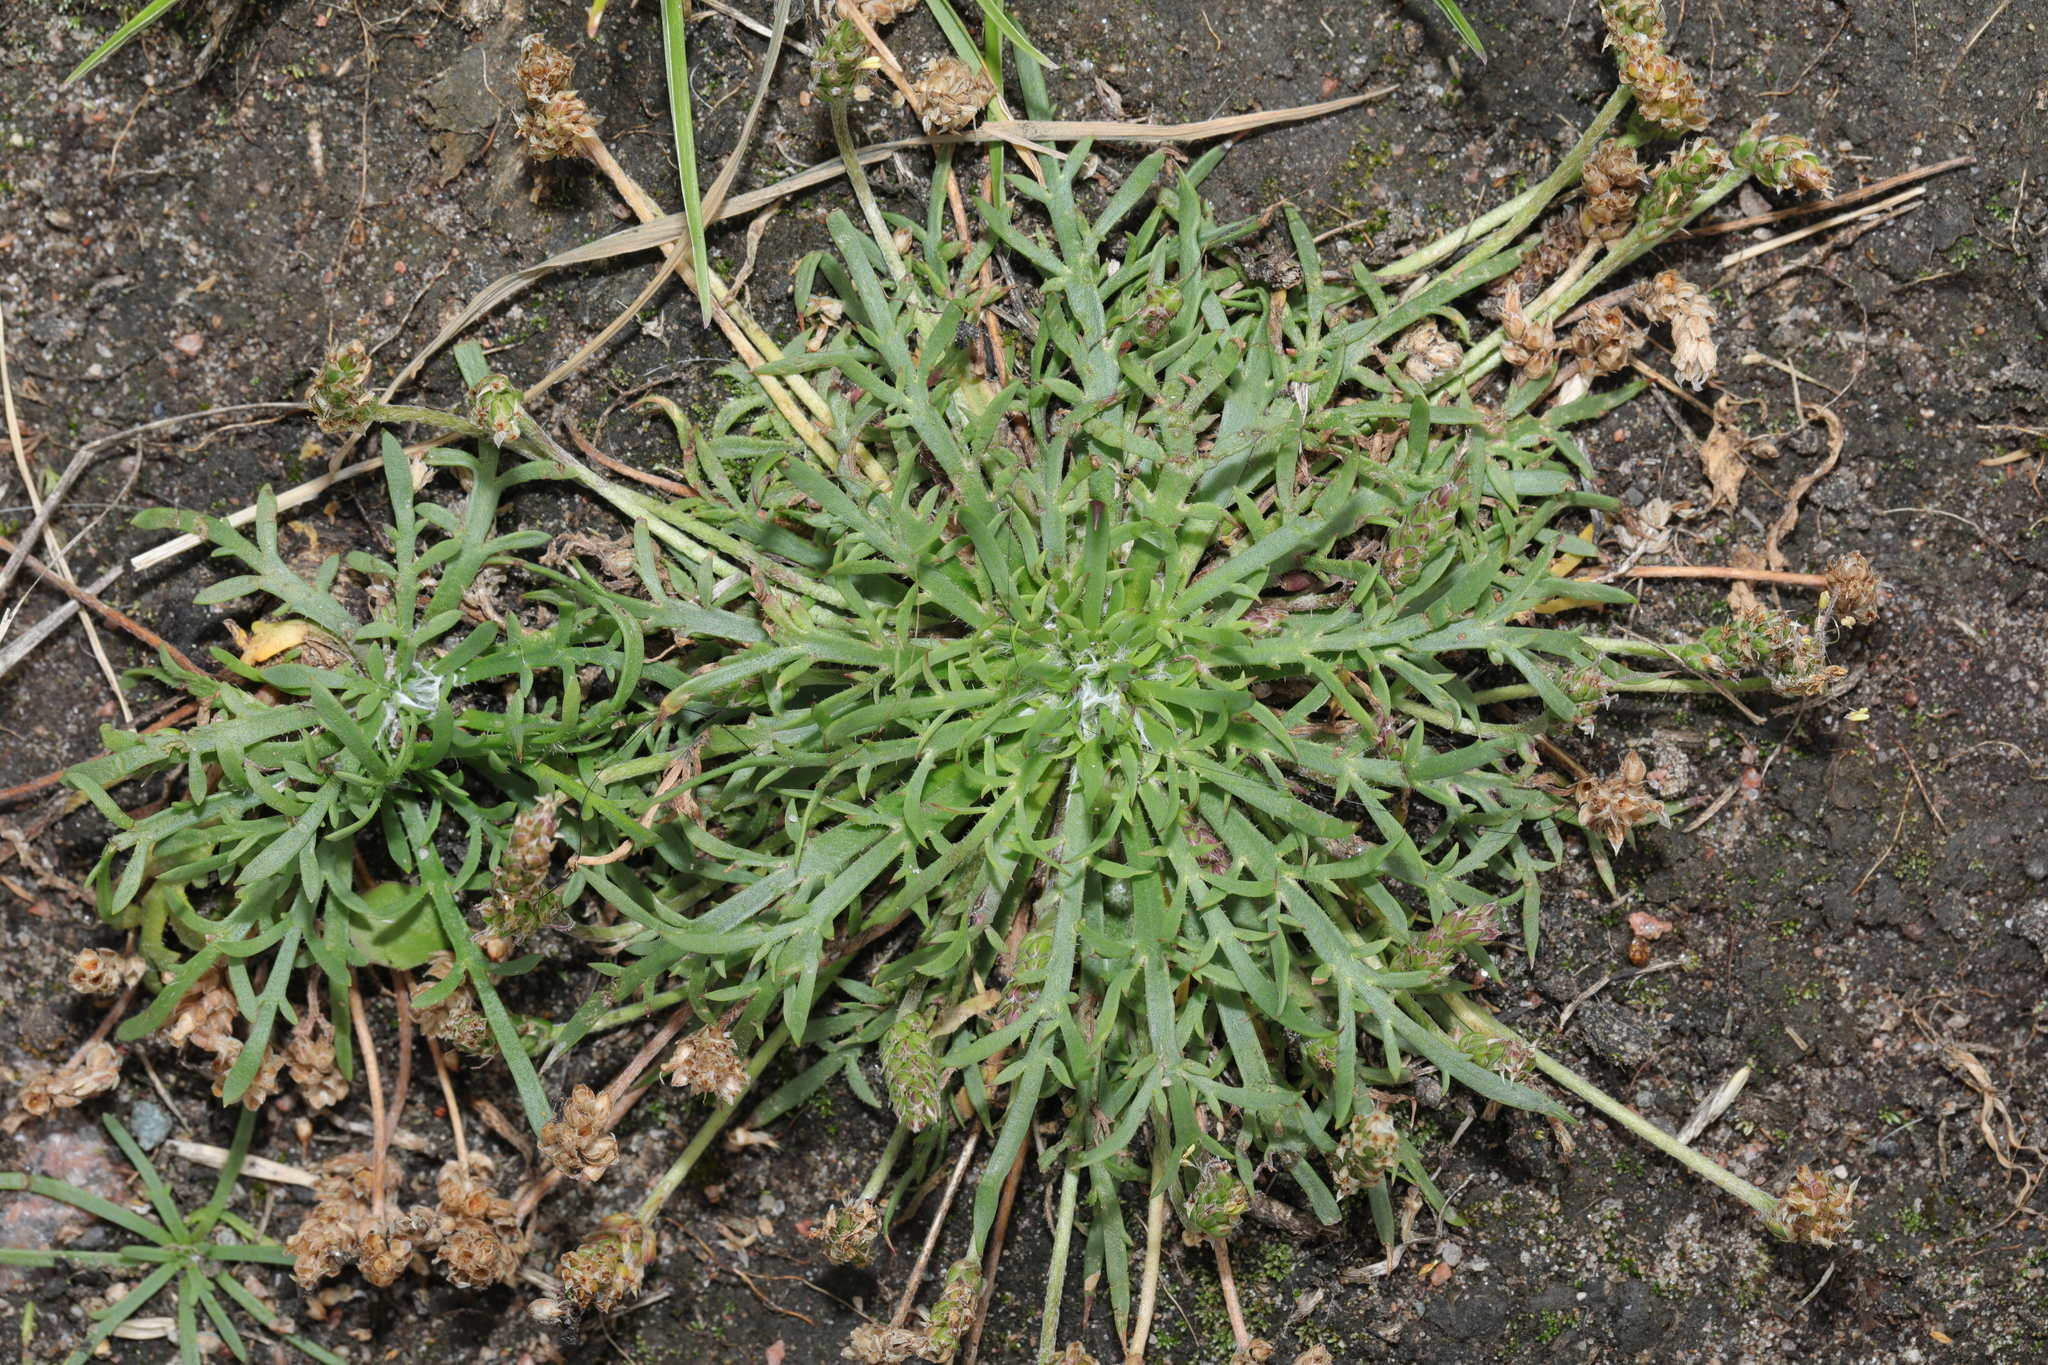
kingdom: Plantae
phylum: Tracheophyta
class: Magnoliopsida
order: Lamiales
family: Plantaginaceae
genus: Plantago
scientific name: Plantago coronopus
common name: Buck's-horn plantain
